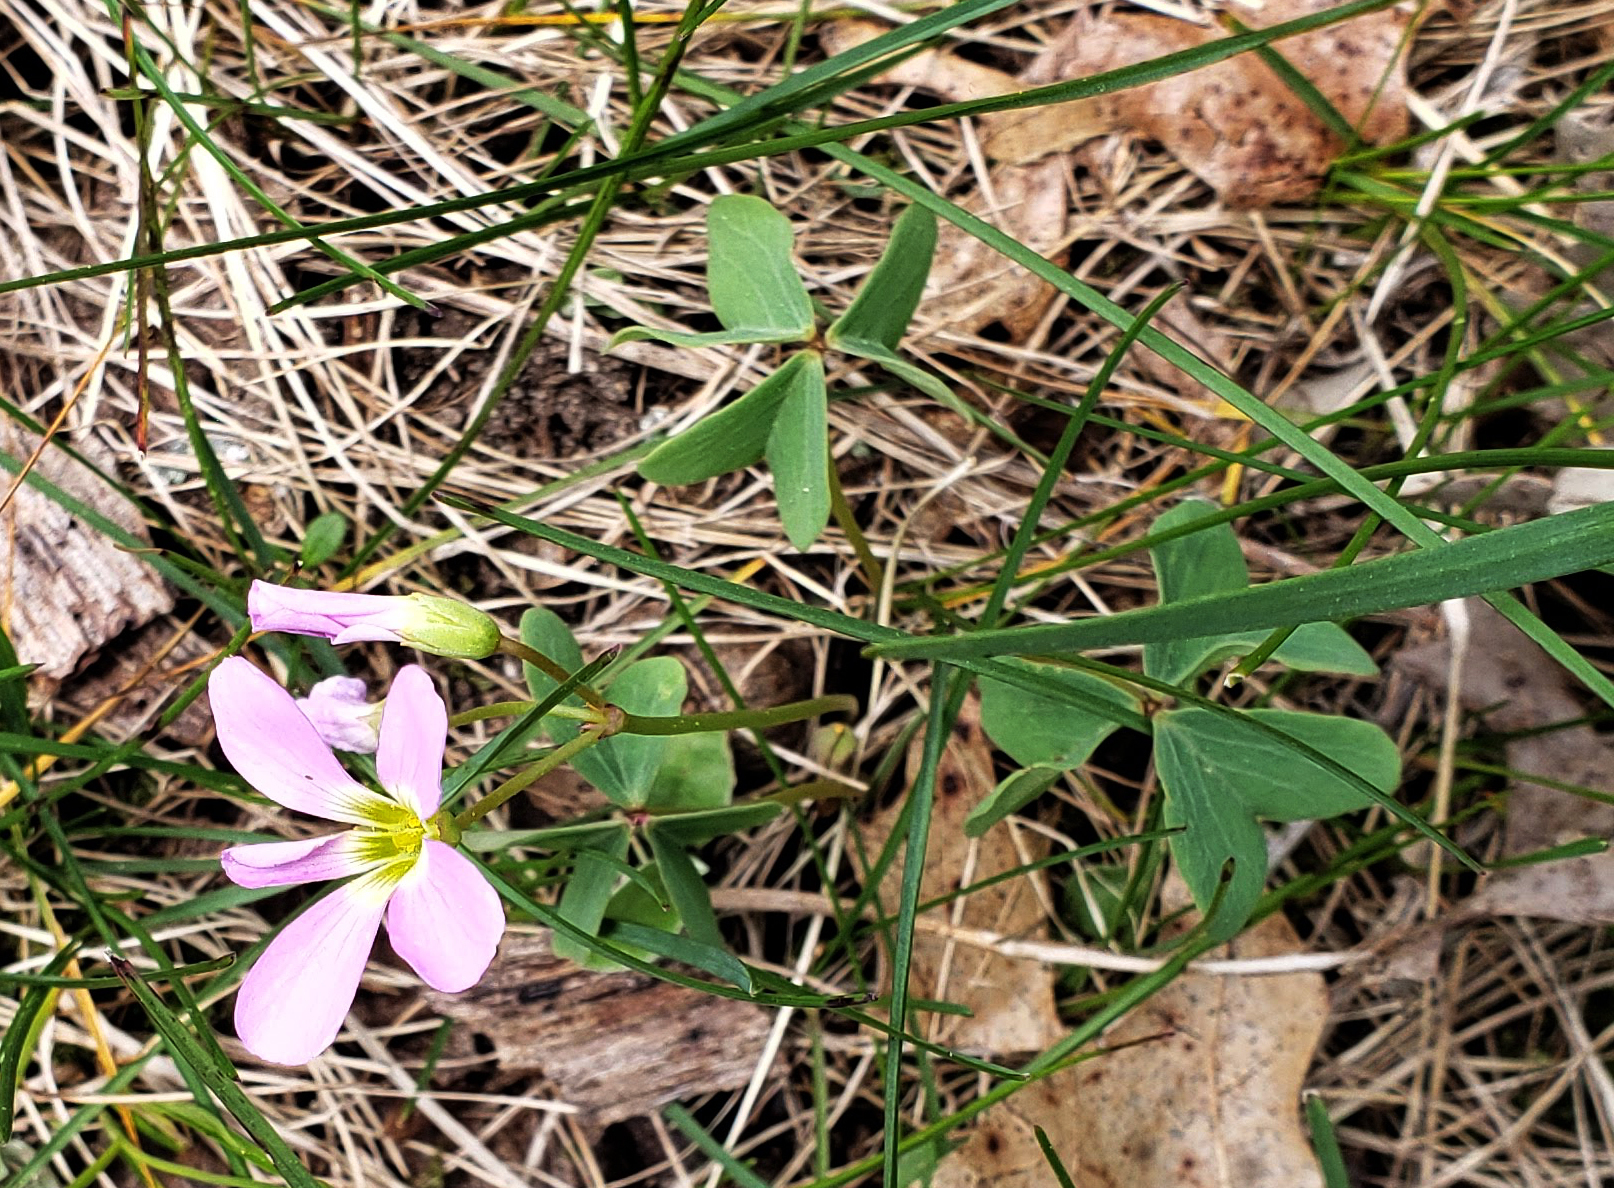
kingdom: Plantae
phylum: Tracheophyta
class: Magnoliopsida
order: Oxalidales
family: Oxalidaceae
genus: Oxalis
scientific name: Oxalis violacea
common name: Violet wood-sorrel
